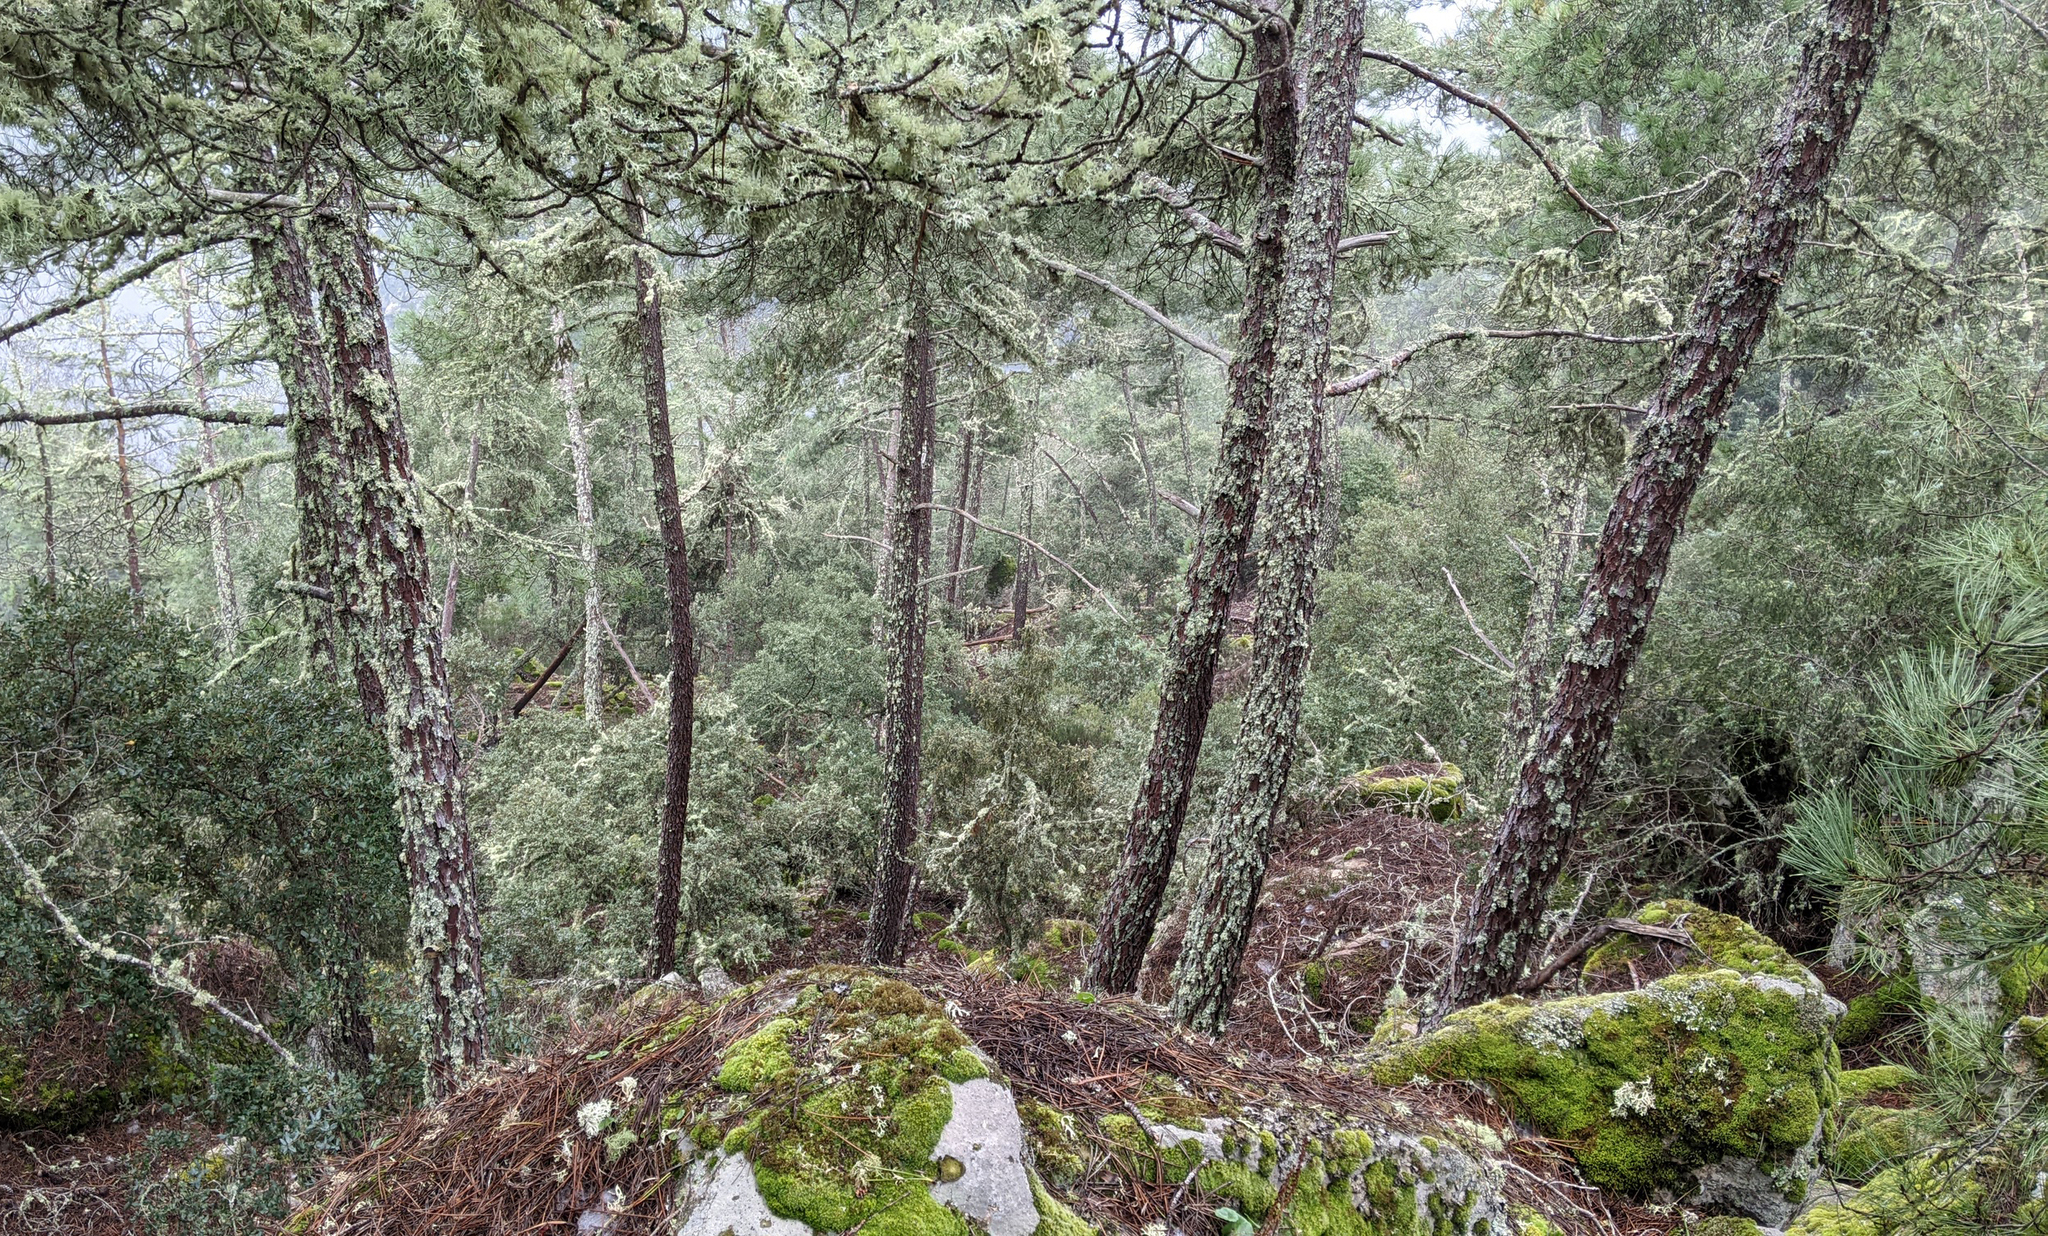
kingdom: Plantae
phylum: Tracheophyta
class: Pinopsida
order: Pinales
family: Pinaceae
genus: Pinus
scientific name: Pinus pinaster
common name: Maritime pine
